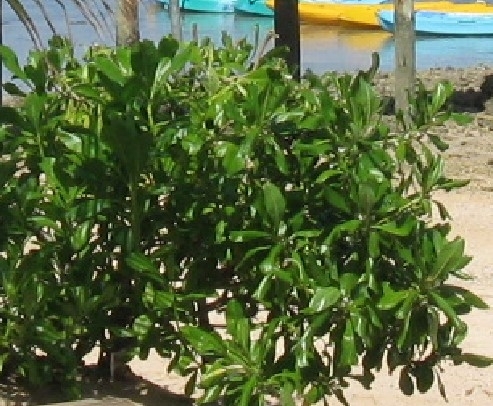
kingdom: Plantae
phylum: Tracheophyta
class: Magnoliopsida
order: Asterales
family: Goodeniaceae
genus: Scaevola
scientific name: Scaevola taccada
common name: Sea lettucetree
